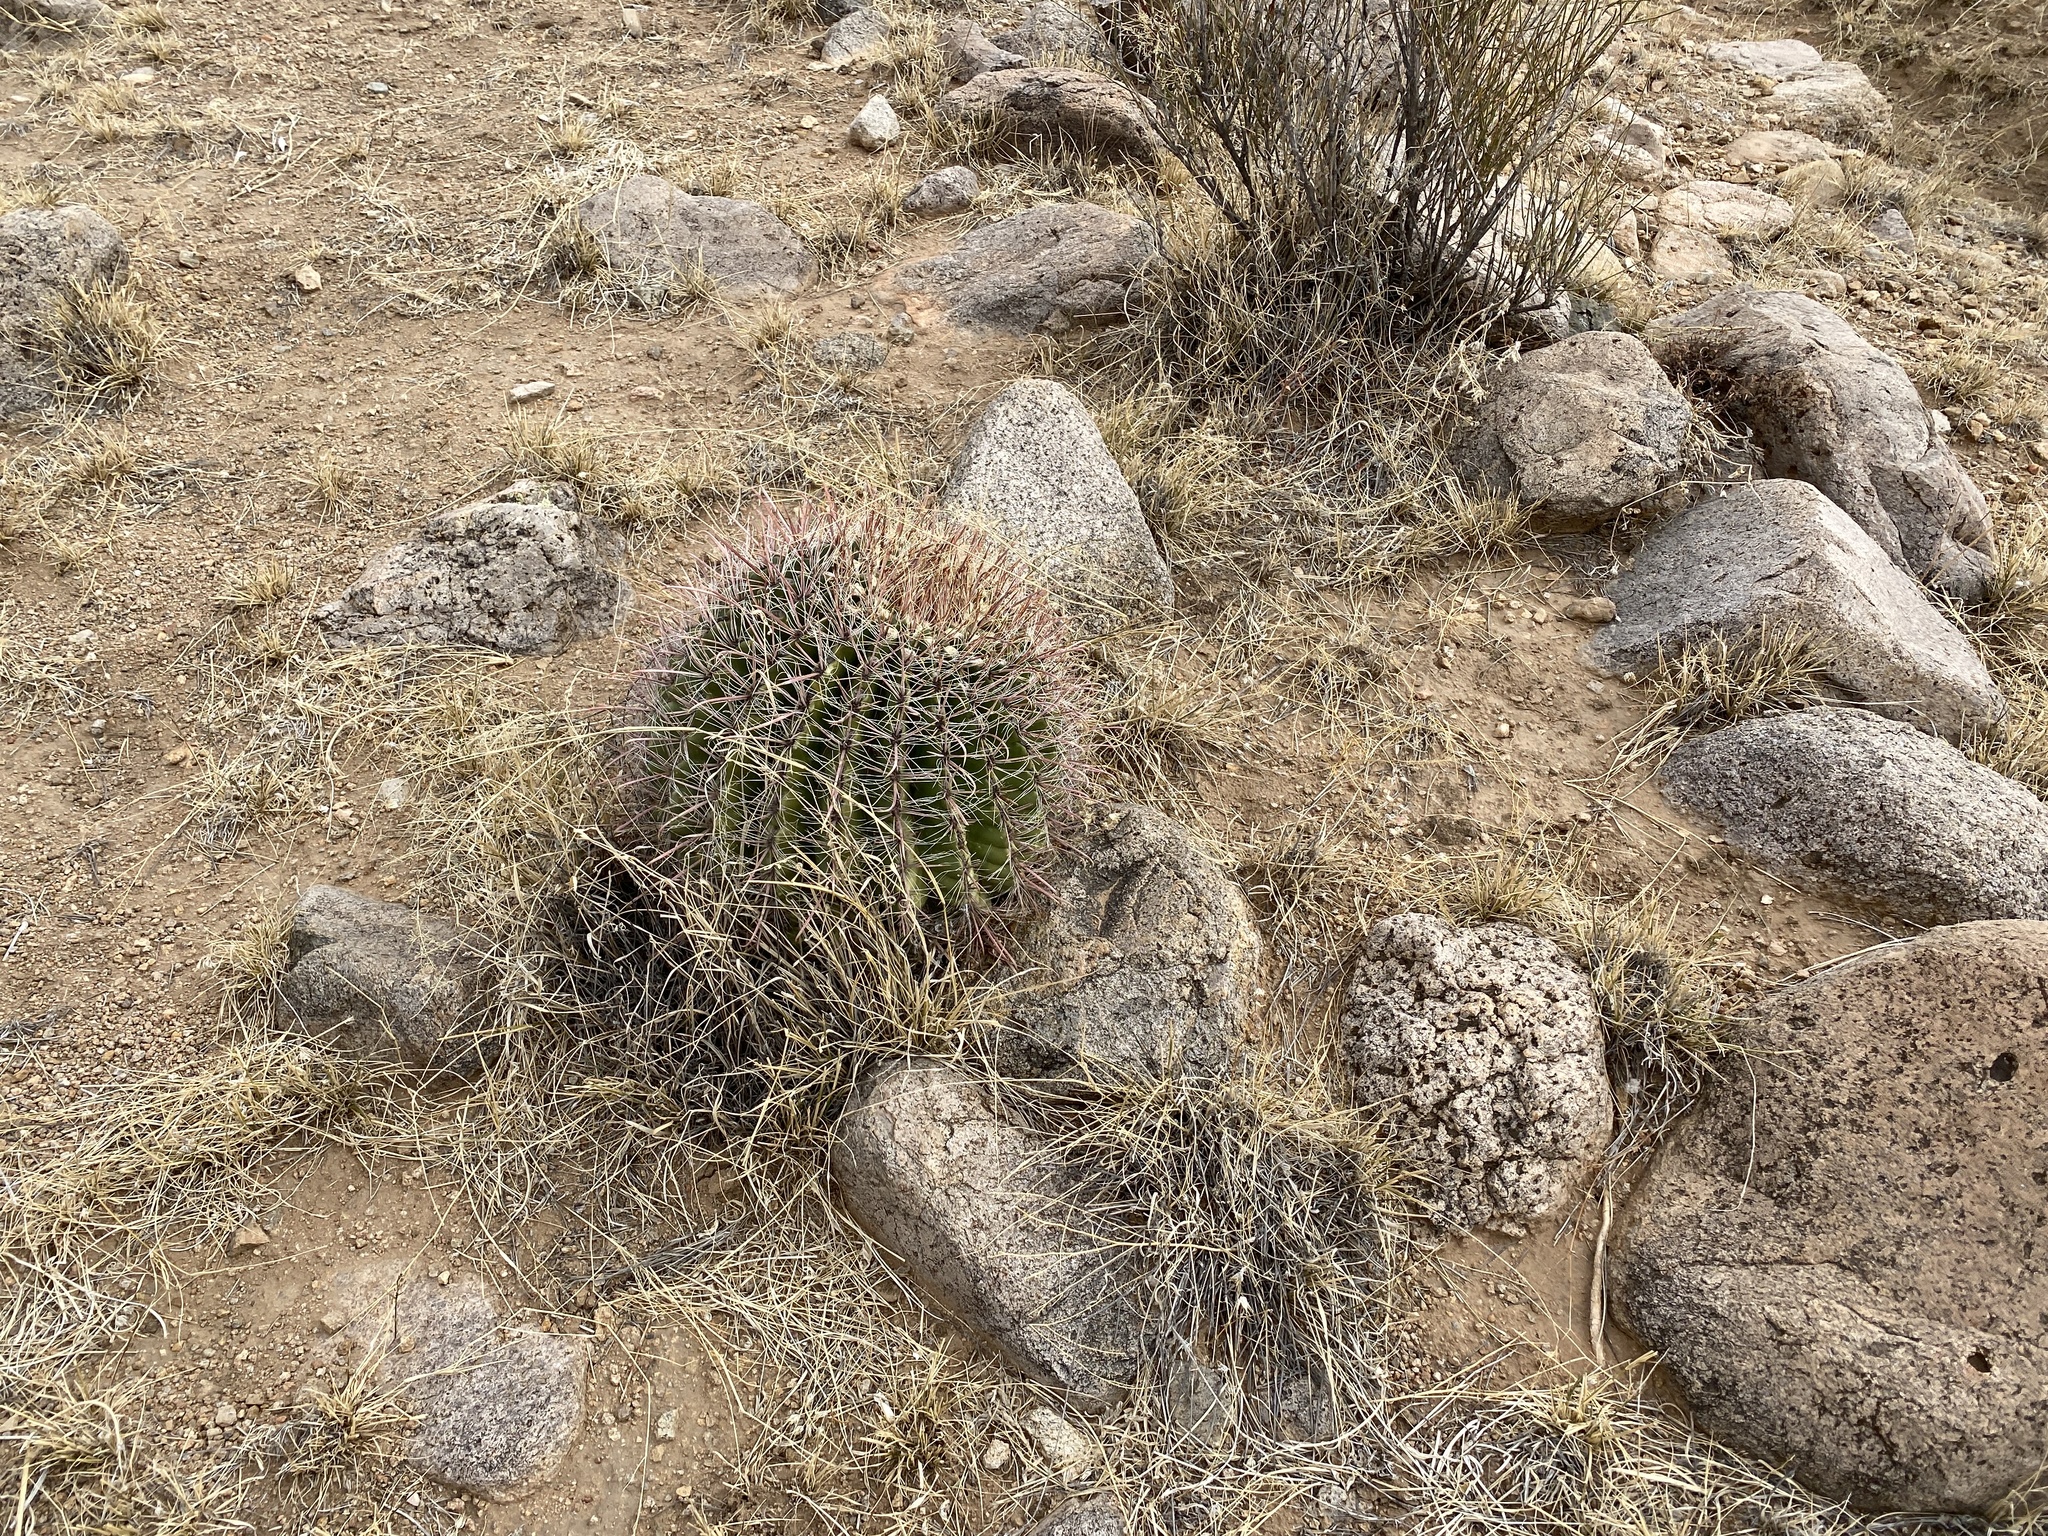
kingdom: Plantae
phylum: Tracheophyta
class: Magnoliopsida
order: Caryophyllales
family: Cactaceae
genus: Ferocactus
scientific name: Ferocactus wislizeni
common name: Candy barrel cactus
